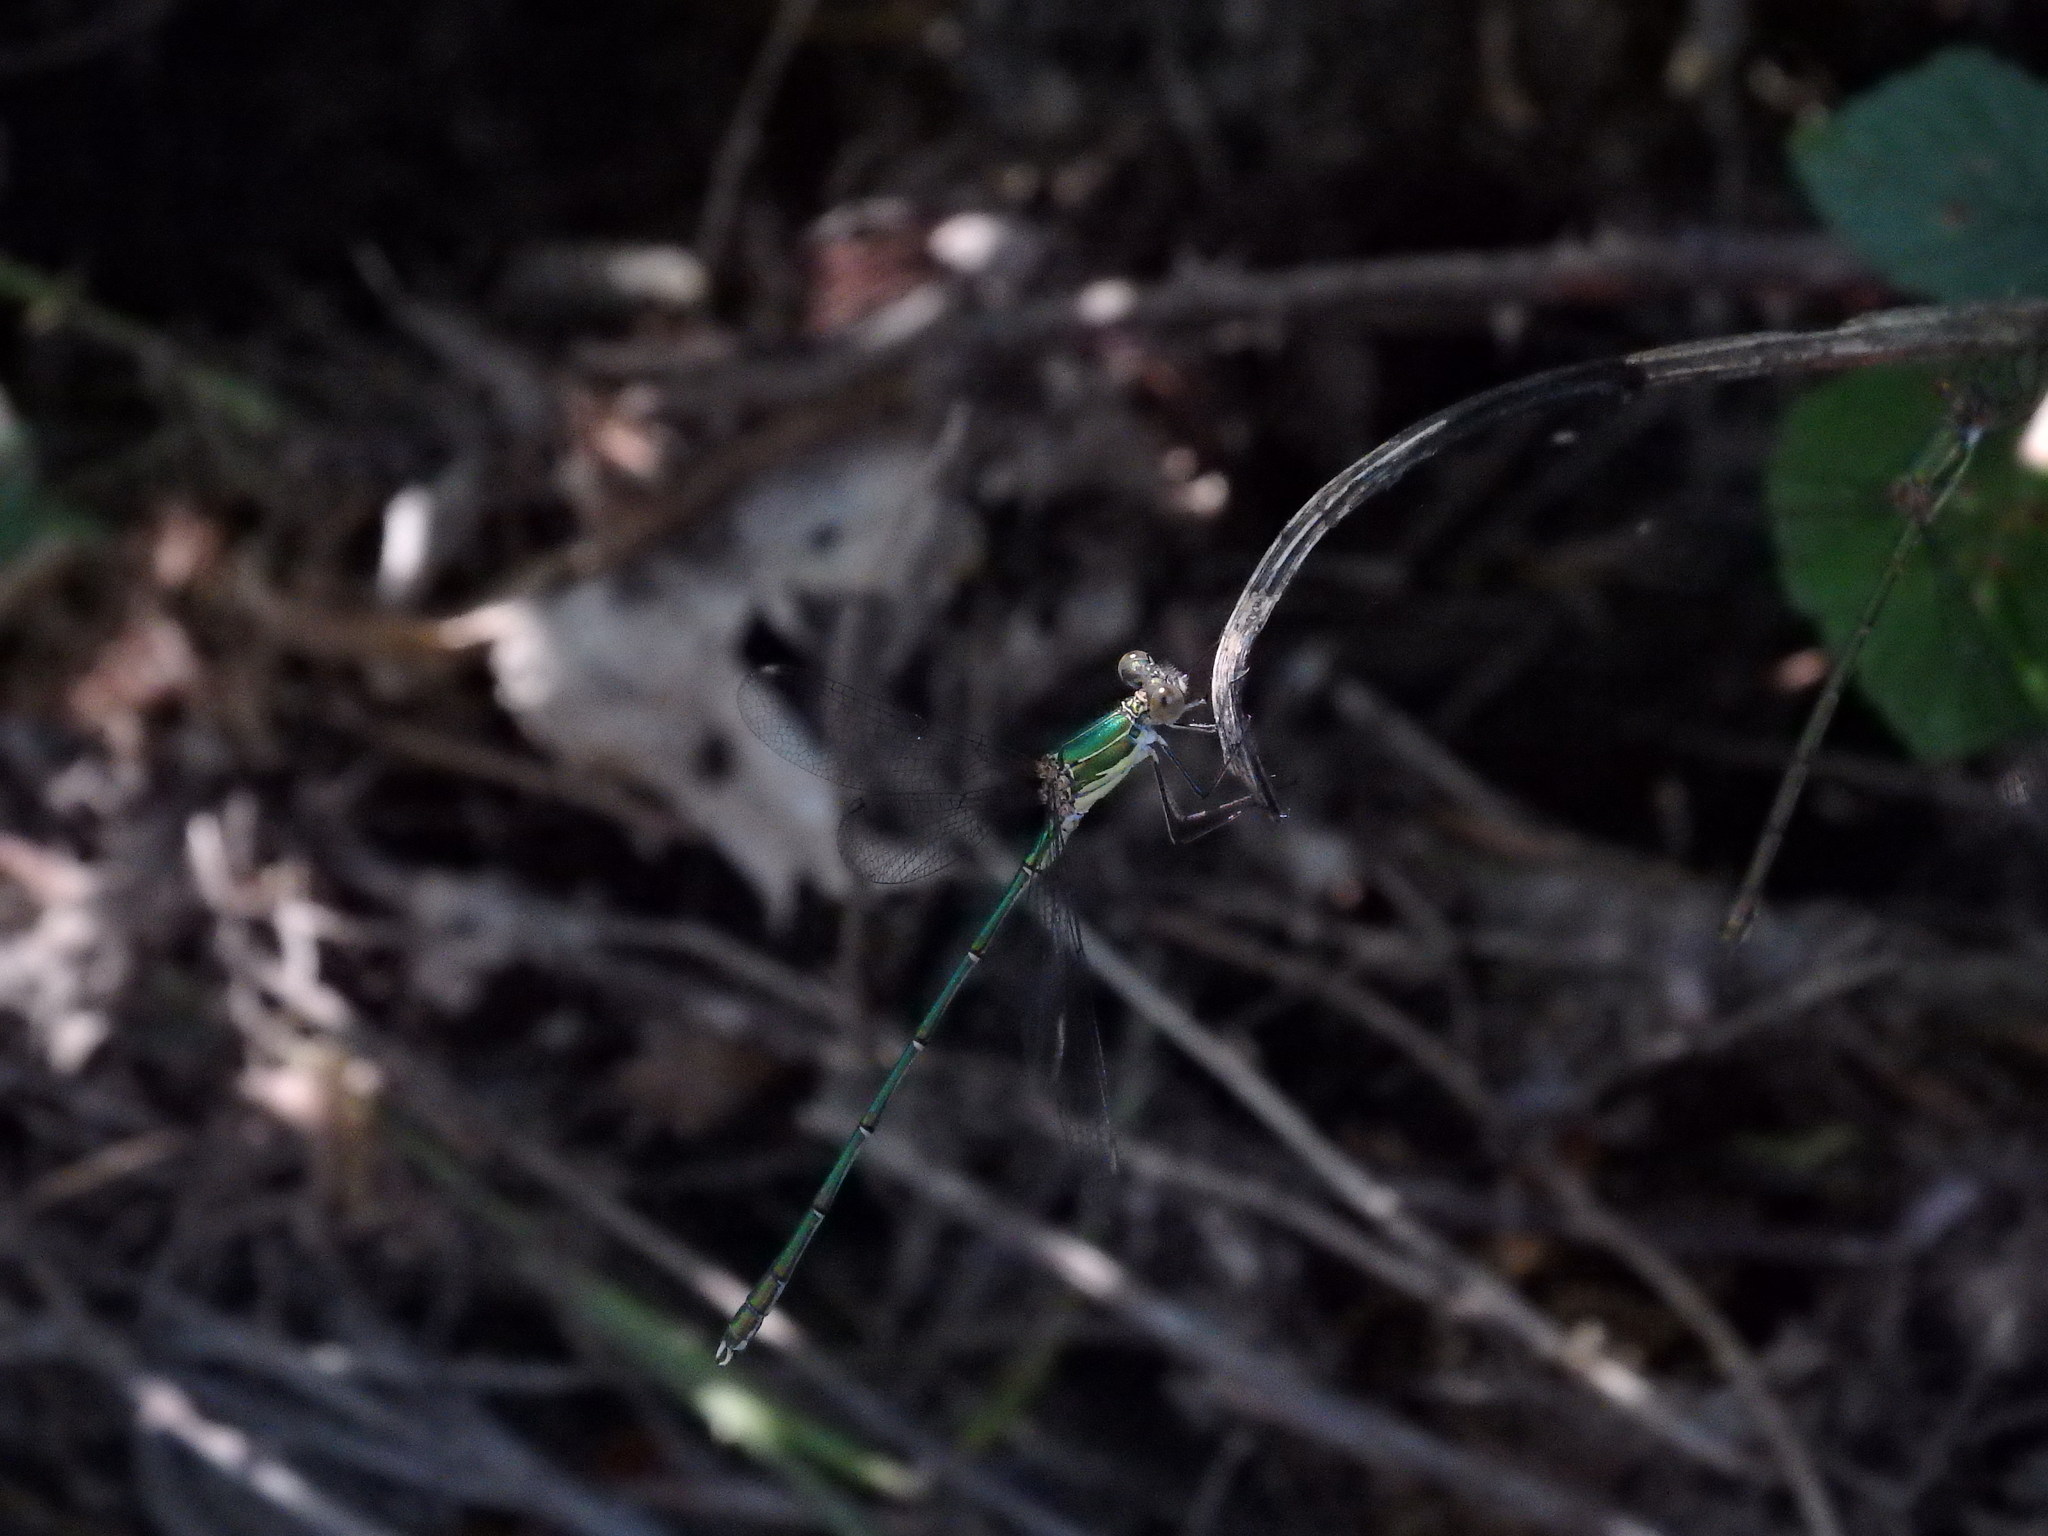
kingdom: Animalia
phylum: Arthropoda
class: Insecta
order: Odonata
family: Lestidae
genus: Chalcolestes
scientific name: Chalcolestes viridis
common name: Green emerald damselfly
